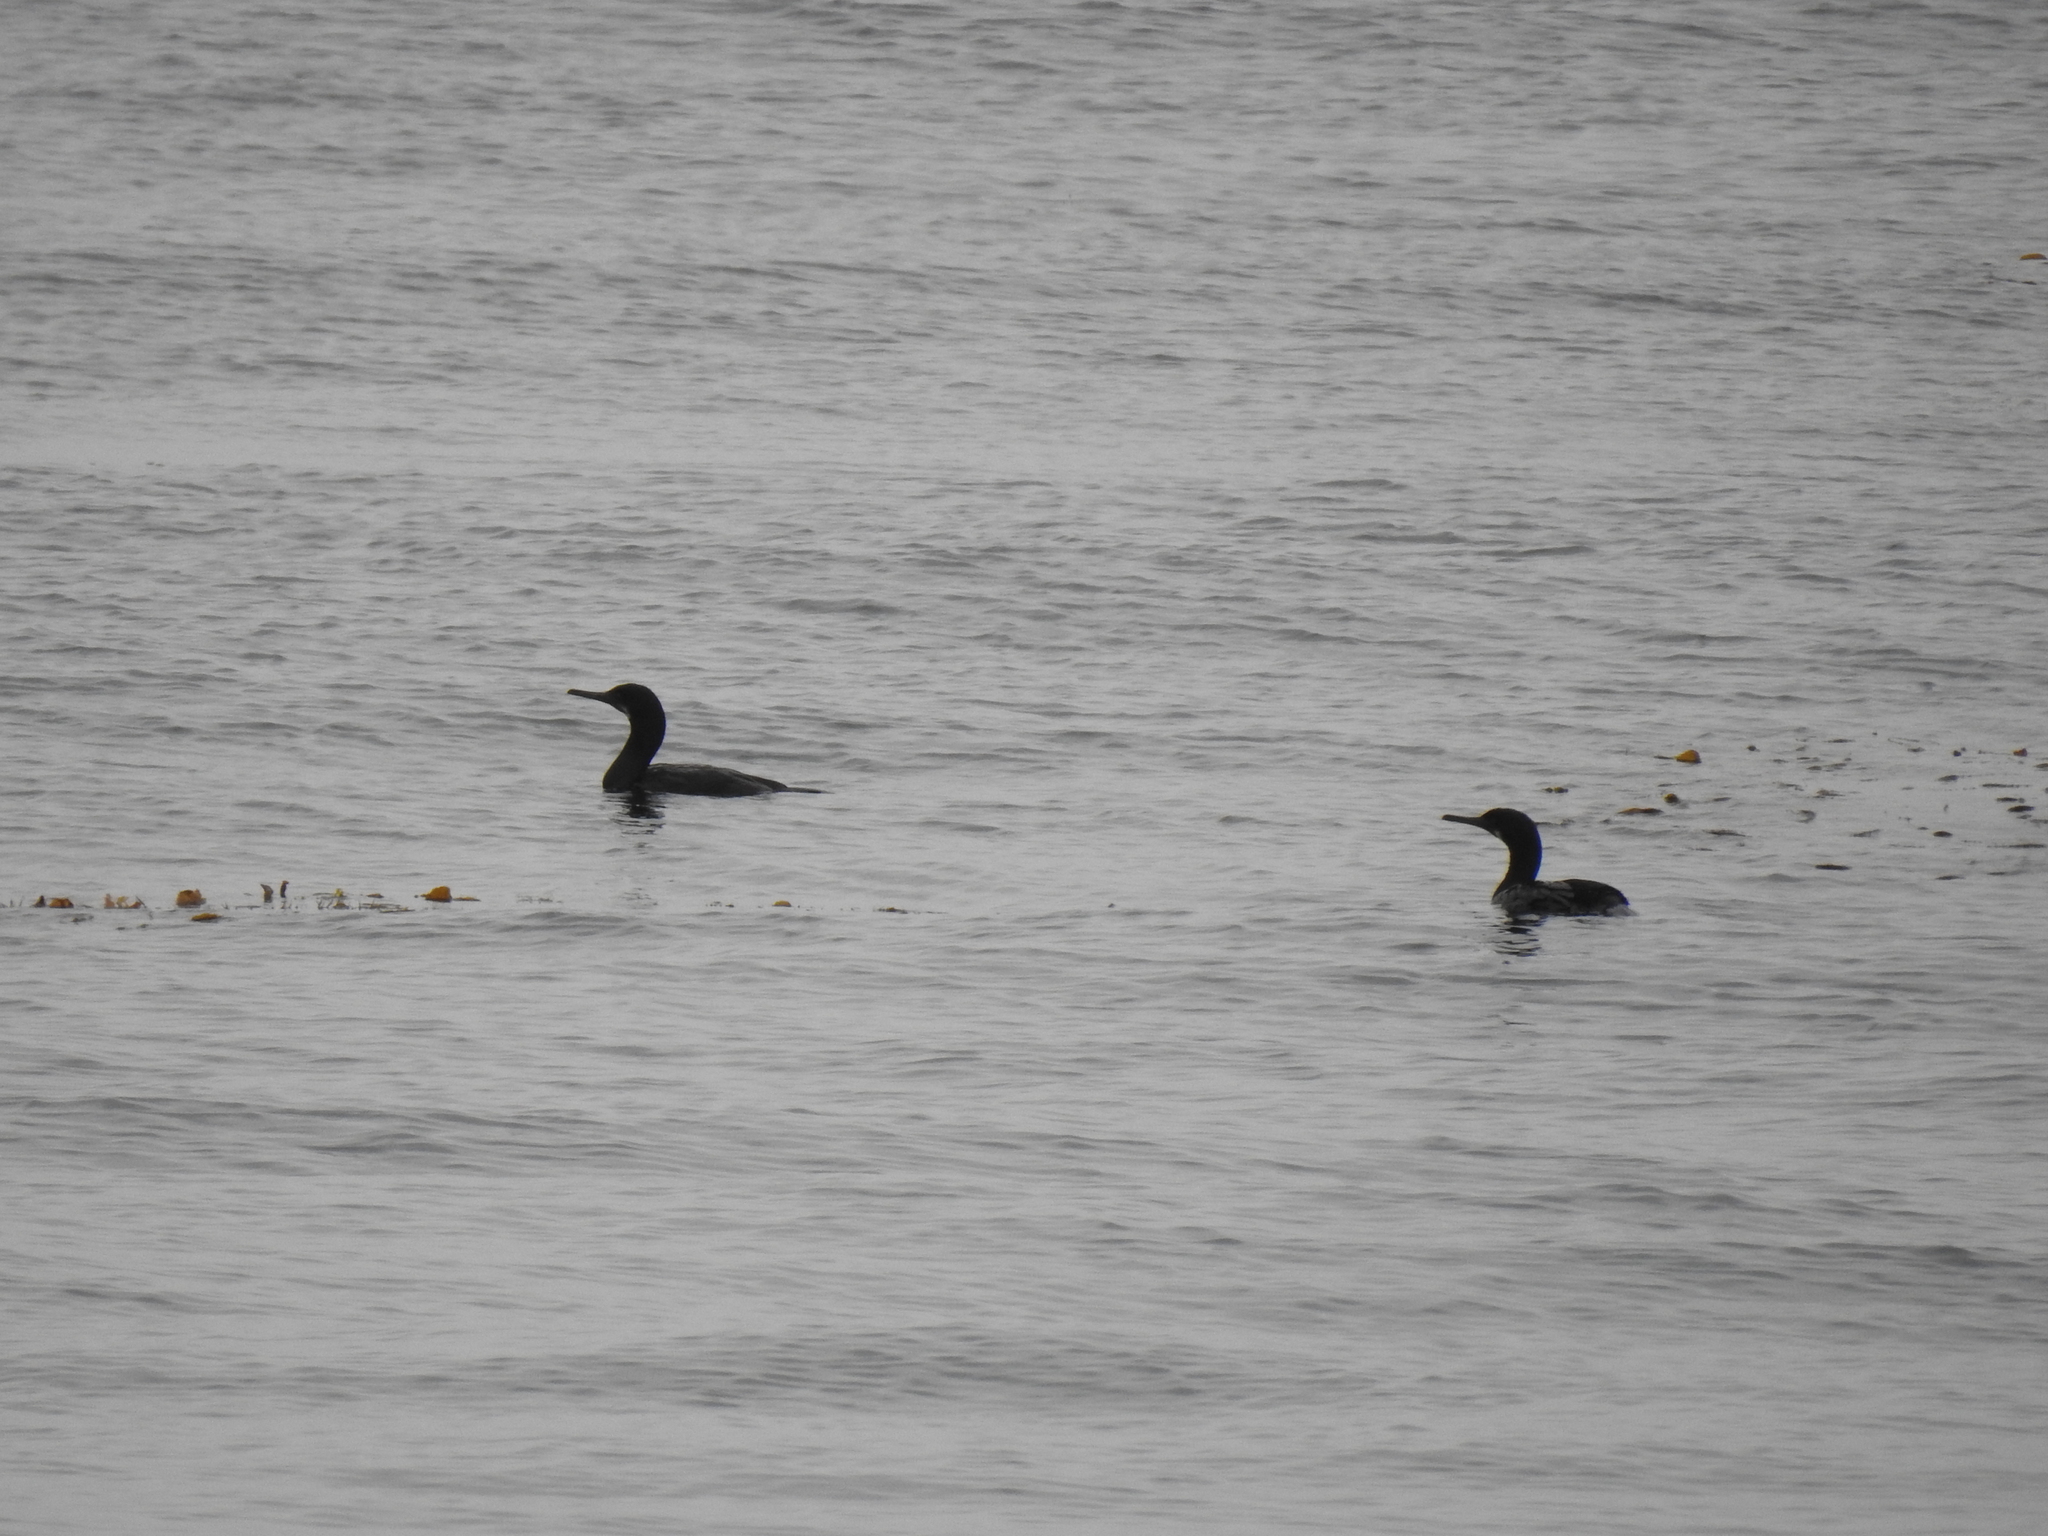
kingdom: Animalia
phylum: Chordata
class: Aves
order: Suliformes
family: Phalacrocoracidae
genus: Urile
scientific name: Urile penicillatus
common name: Brandt's cormorant
